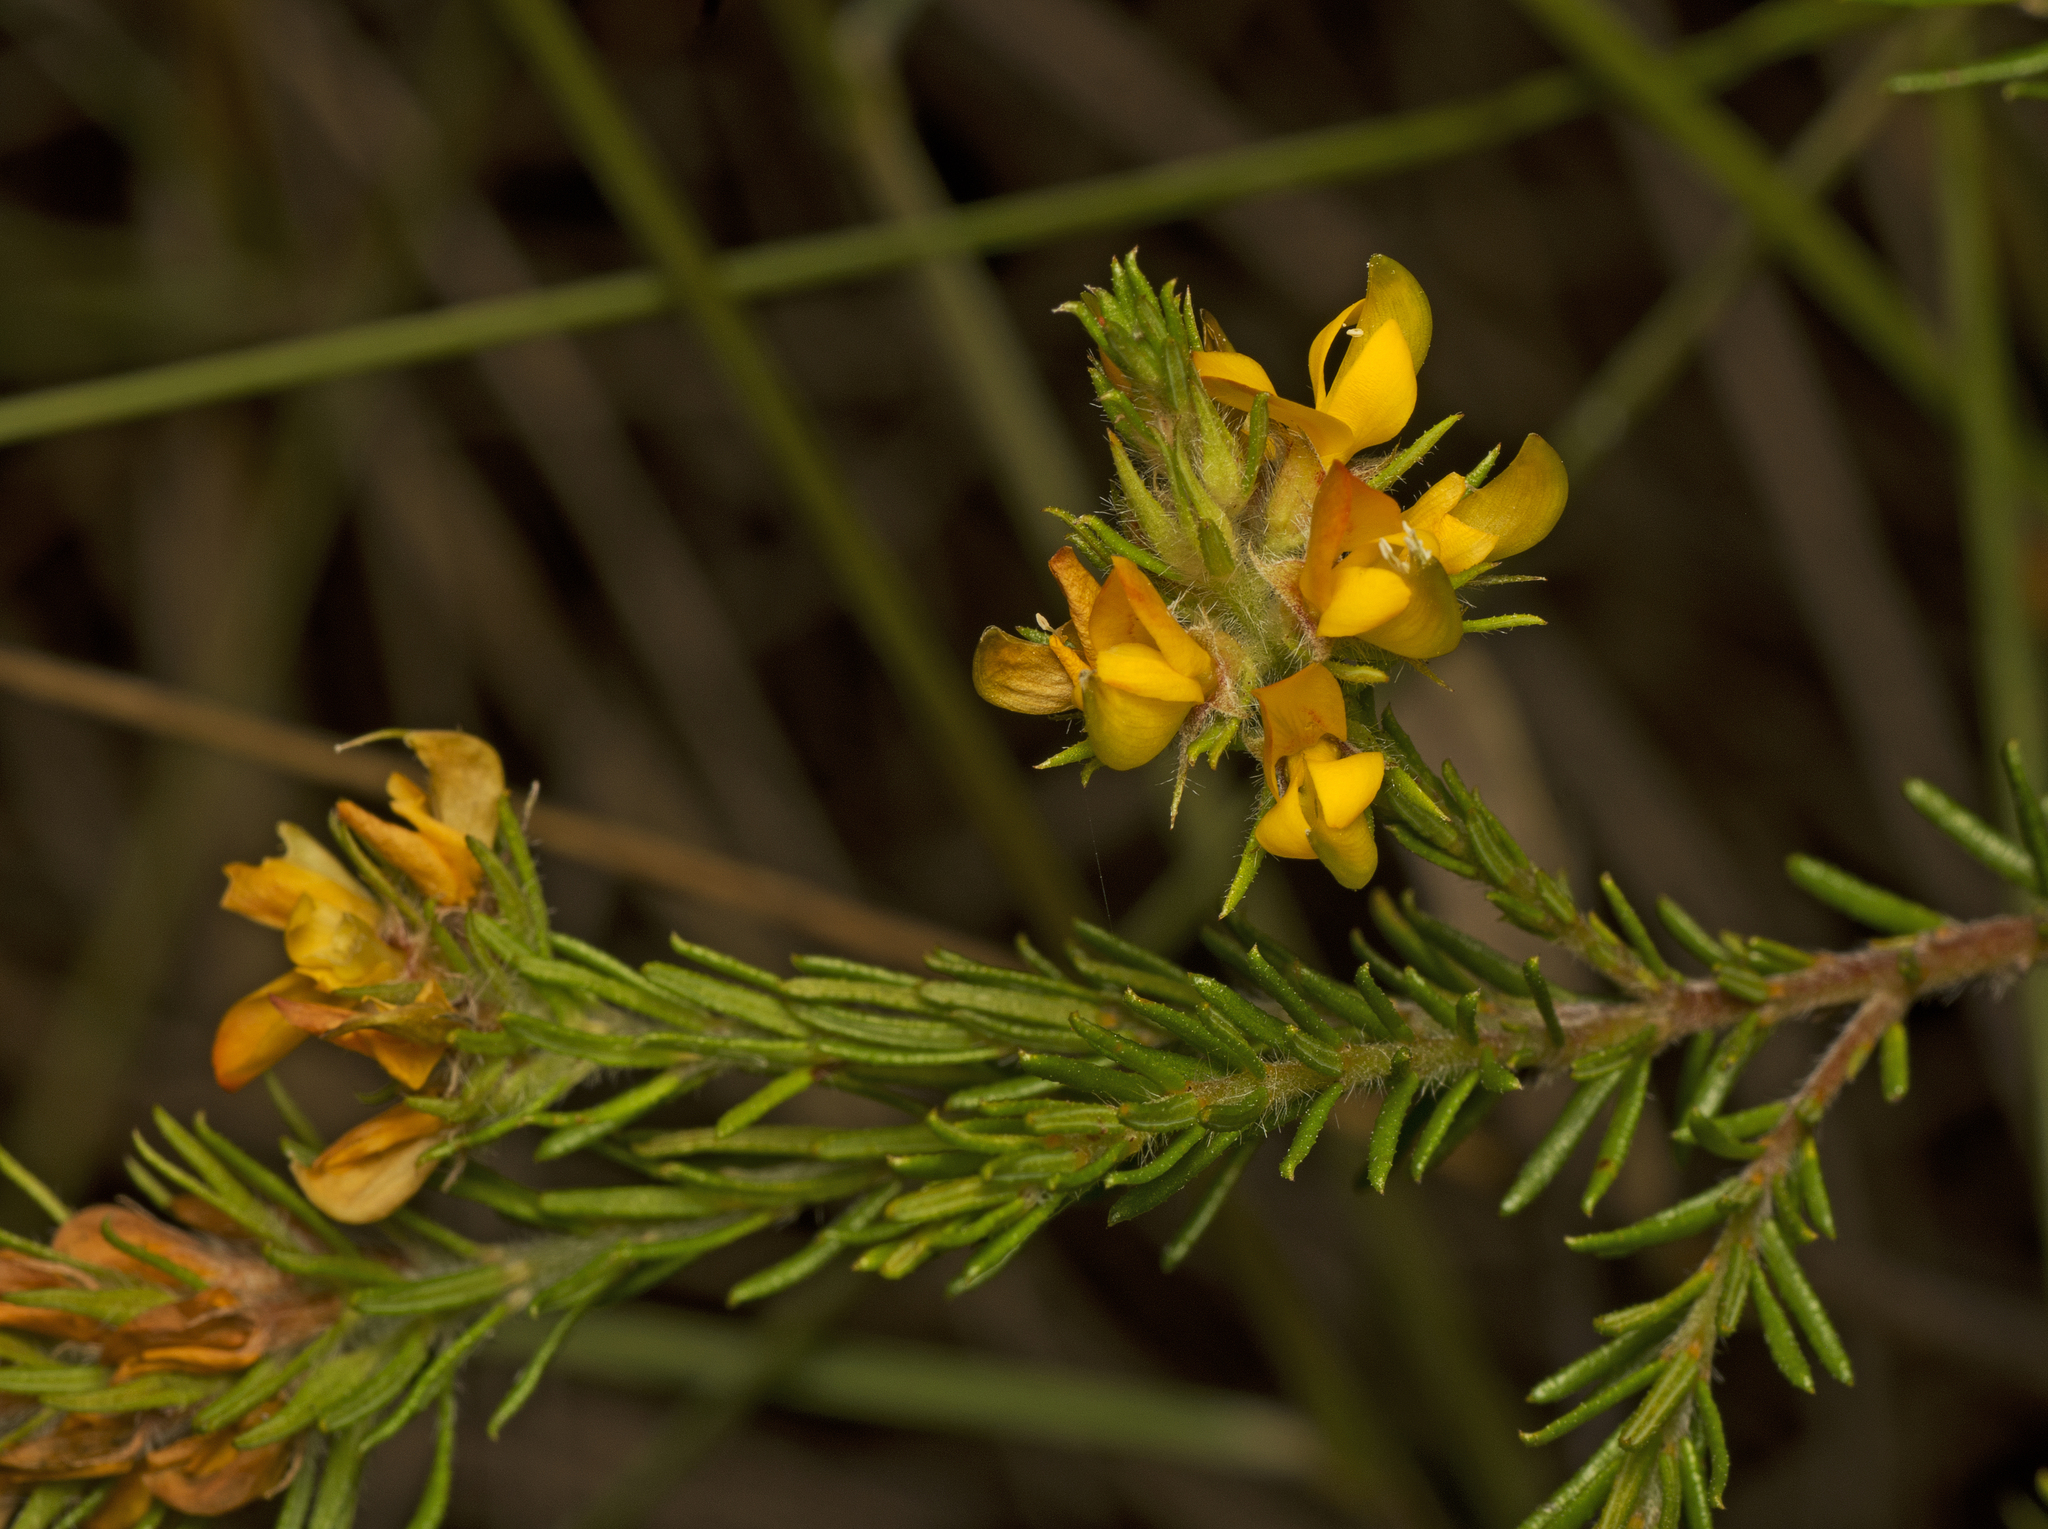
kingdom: Plantae
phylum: Tracheophyta
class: Magnoliopsida
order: Fabales
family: Fabaceae
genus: Phyllota
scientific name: Phyllota phylicoides
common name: Heath phyllota
